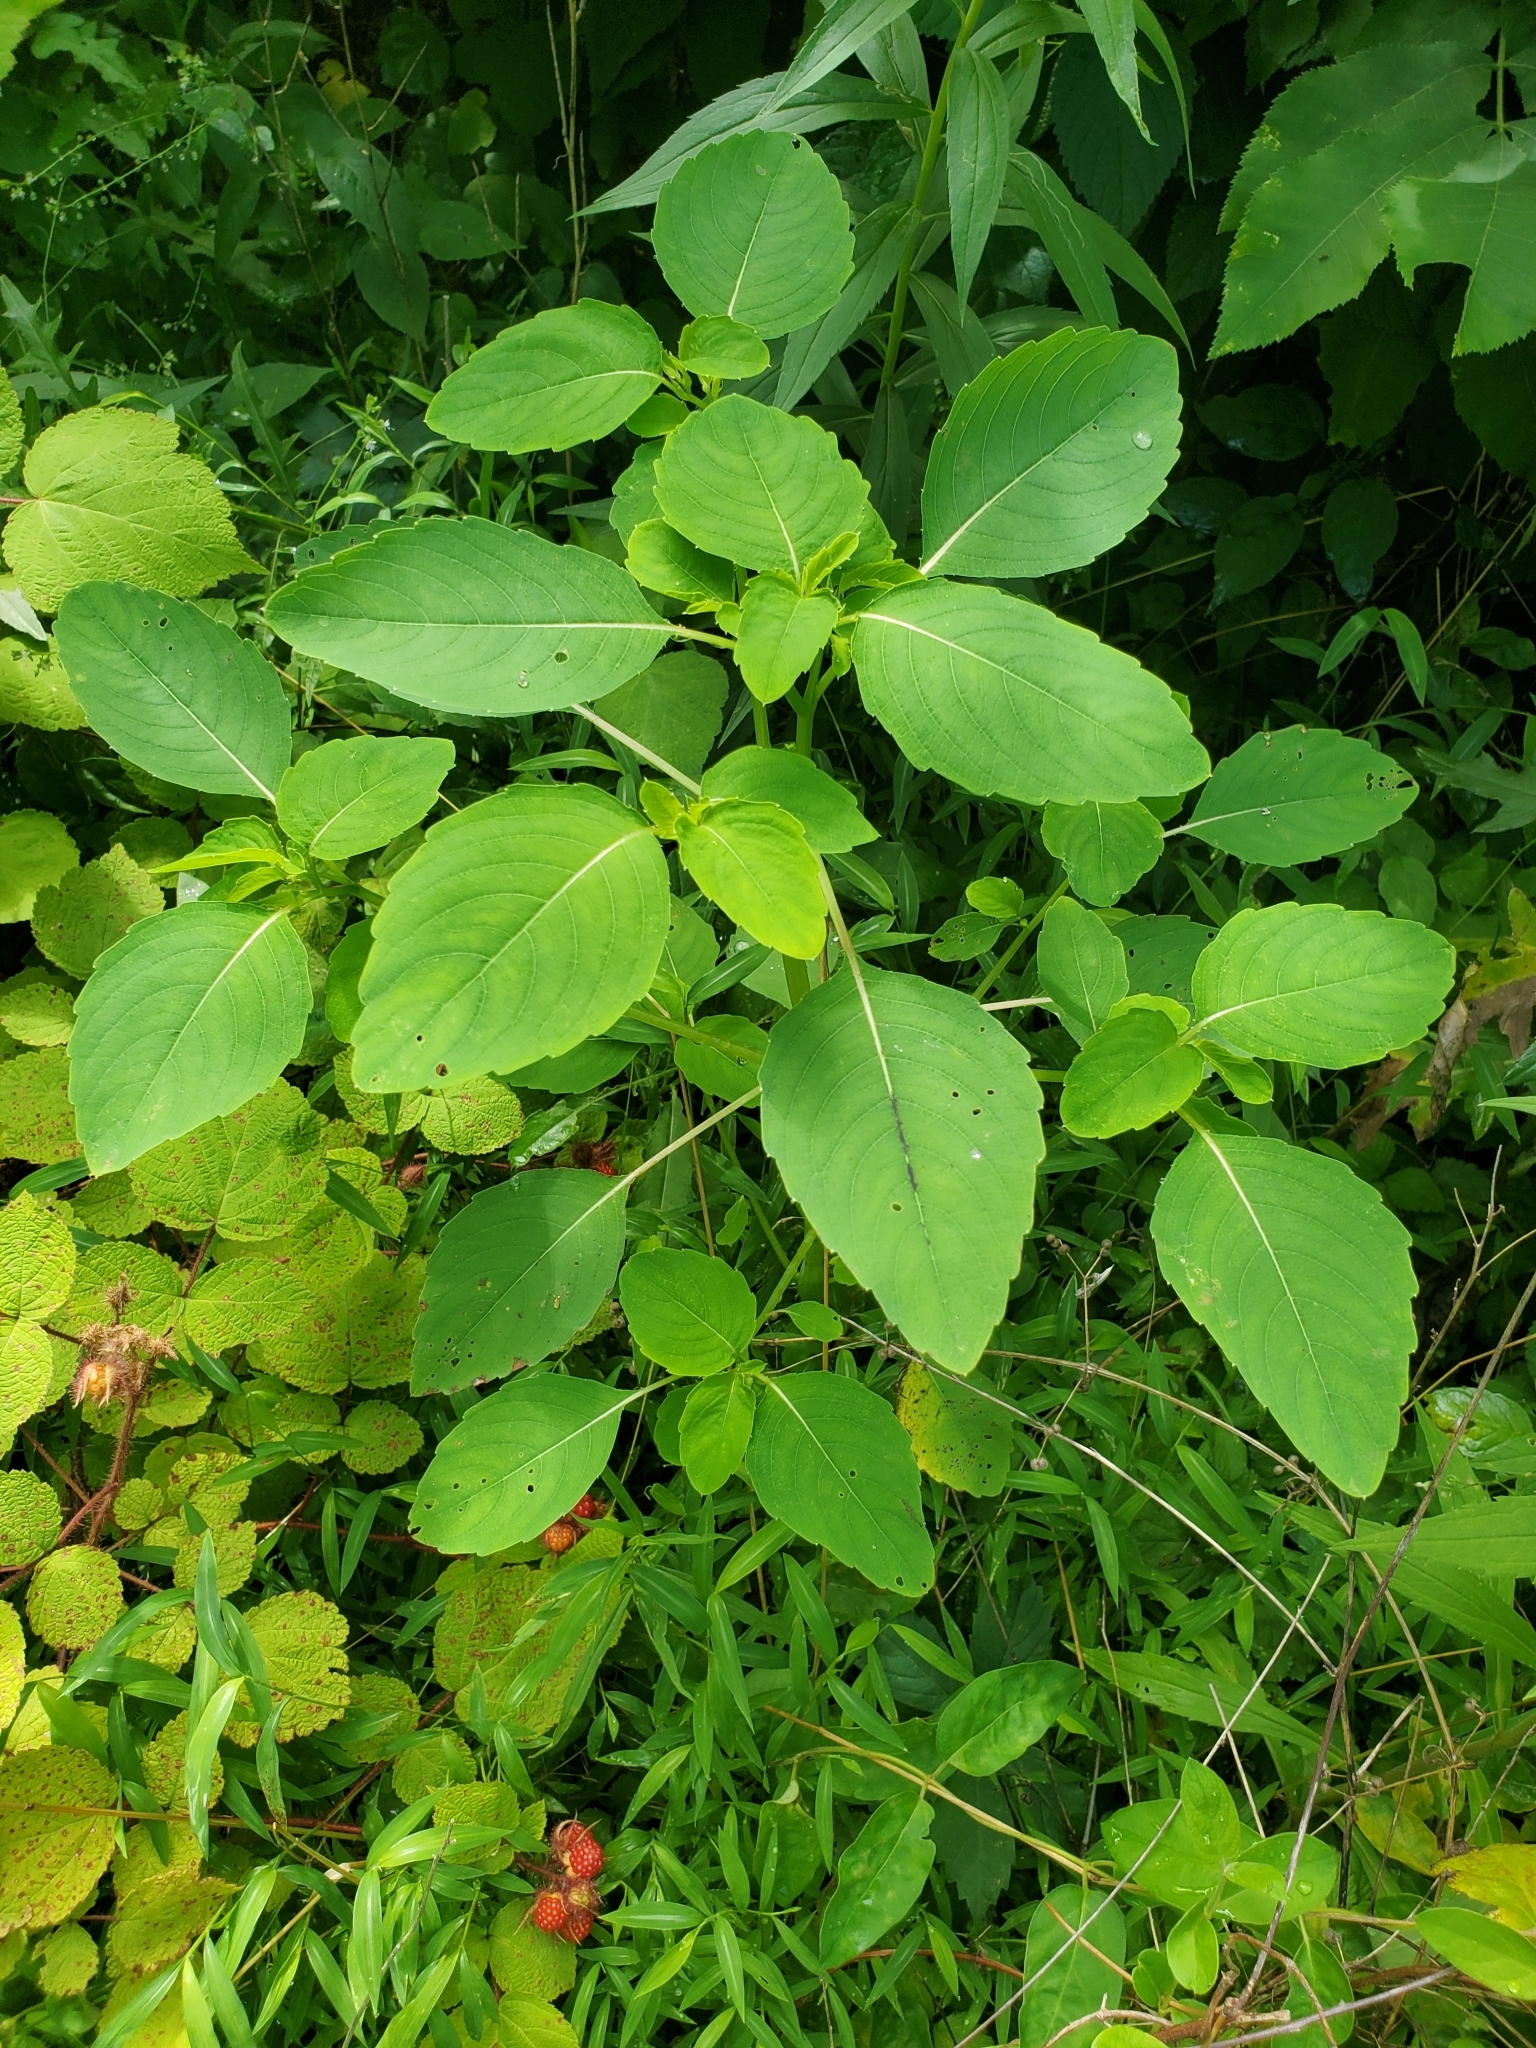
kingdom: Plantae
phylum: Tracheophyta
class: Magnoliopsida
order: Ericales
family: Balsaminaceae
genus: Impatiens
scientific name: Impatiens capensis
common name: Orange balsam
